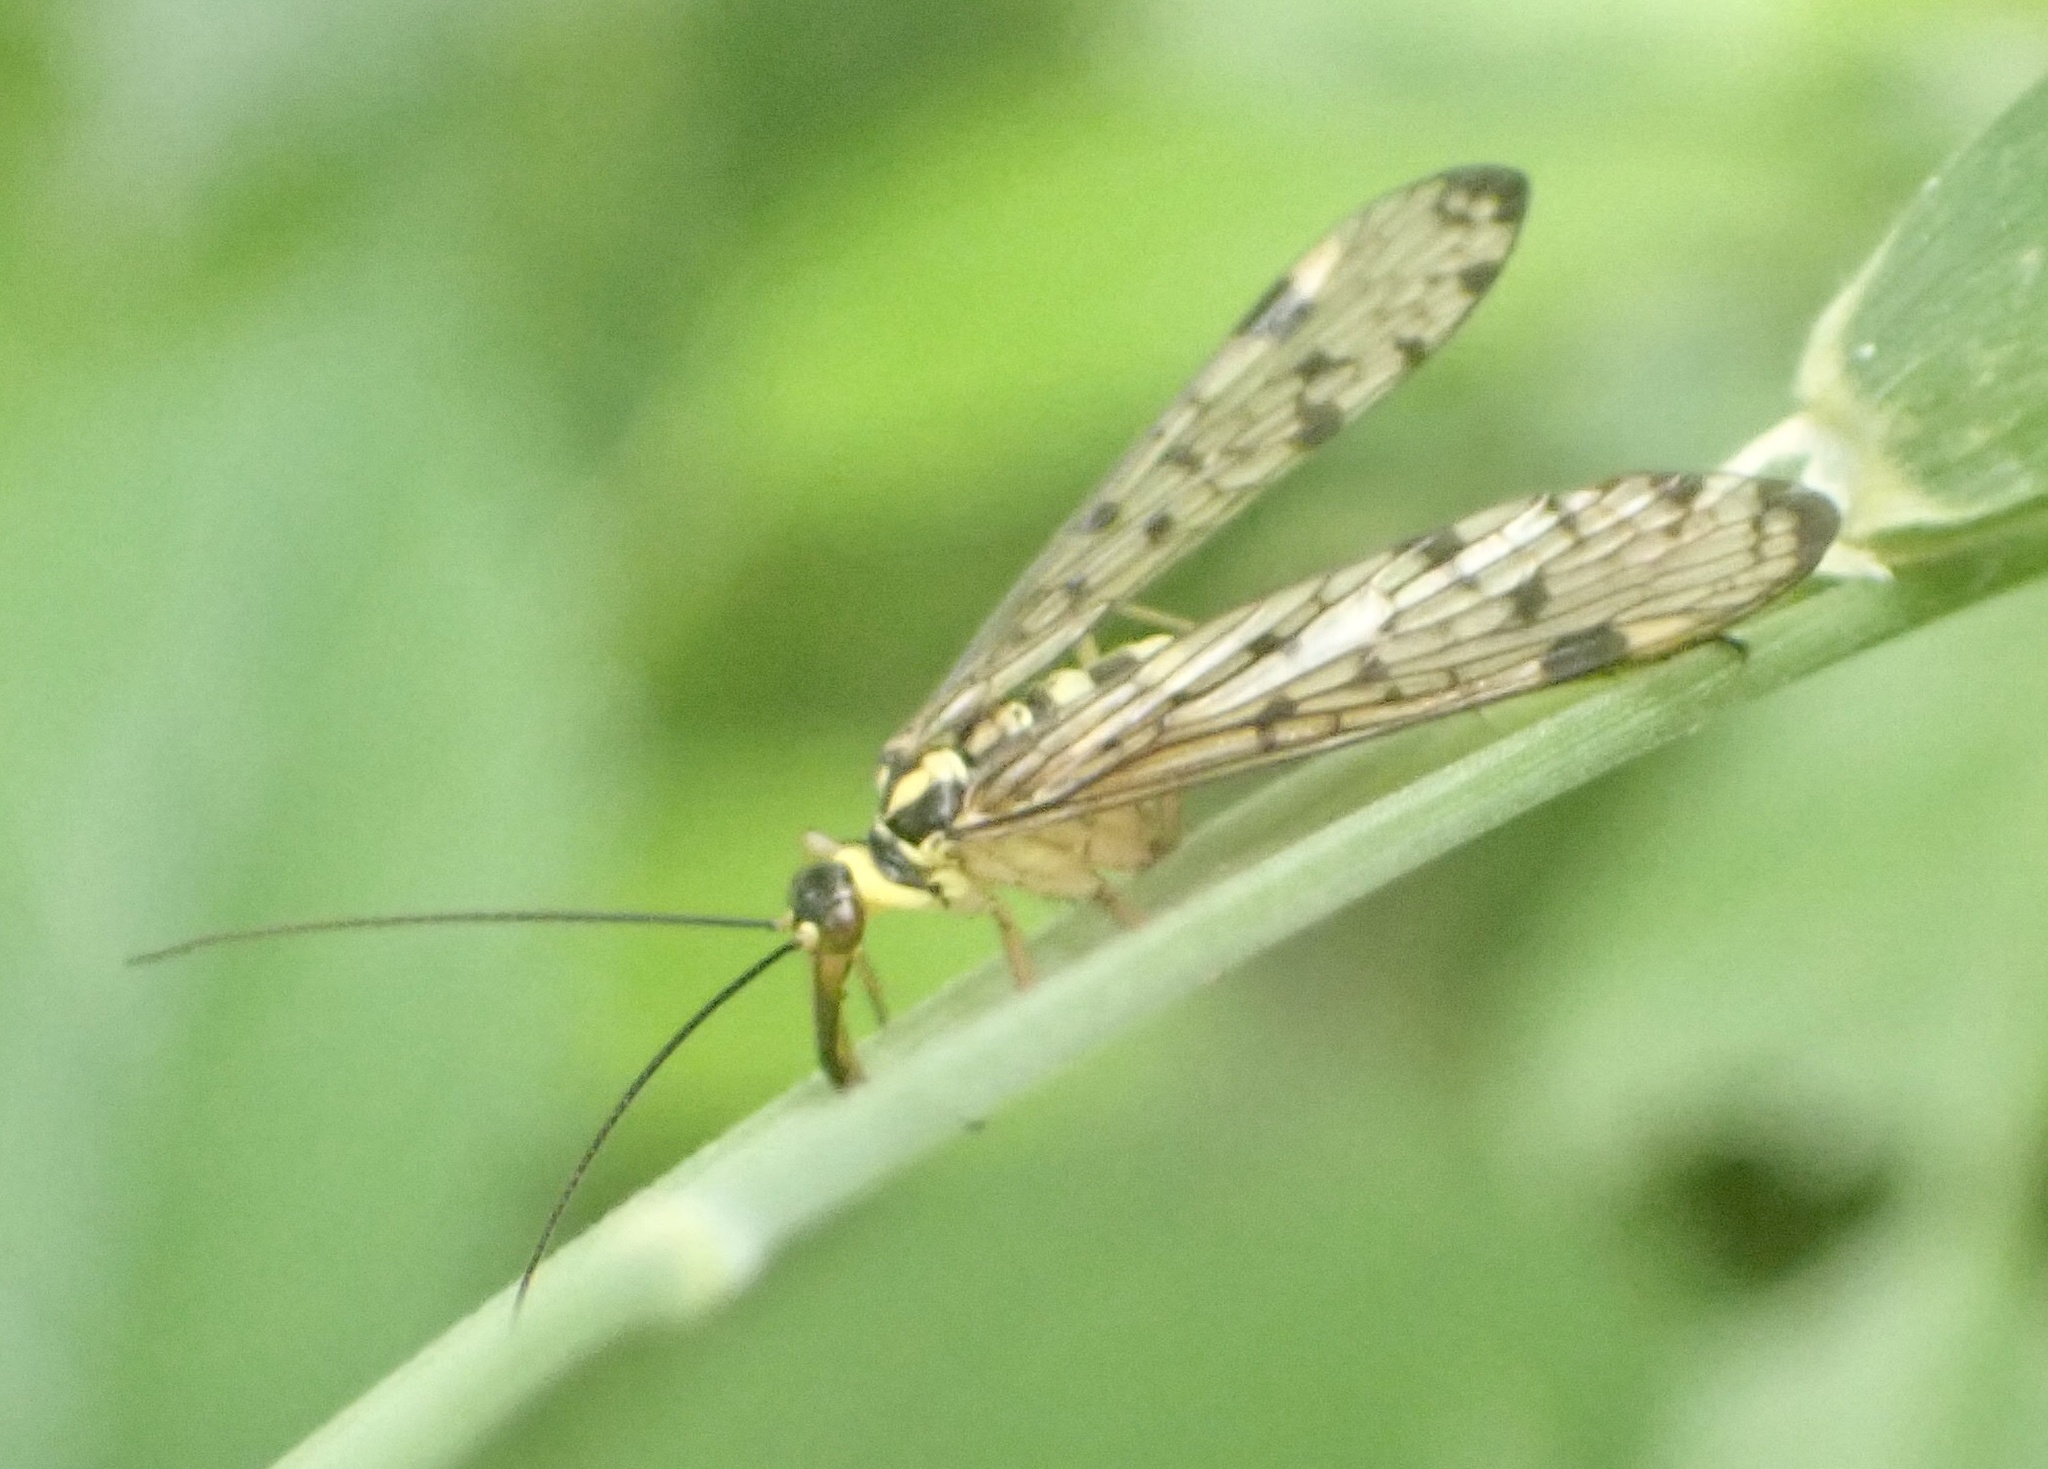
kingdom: Animalia
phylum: Arthropoda
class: Insecta
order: Mecoptera
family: Panorpidae
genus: Panorpa
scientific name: Panorpa germanica
